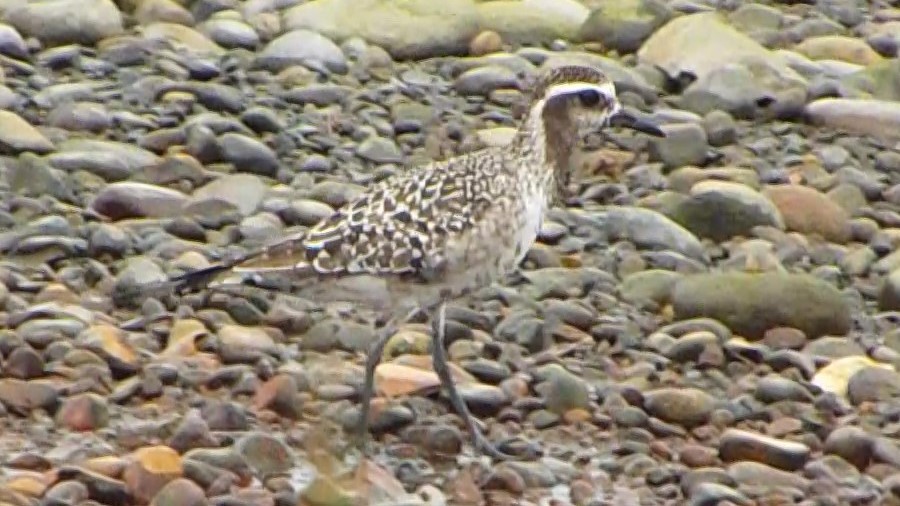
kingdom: Animalia
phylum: Chordata
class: Aves
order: Charadriiformes
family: Charadriidae
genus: Pluvialis
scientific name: Pluvialis dominica
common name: American golden plover
